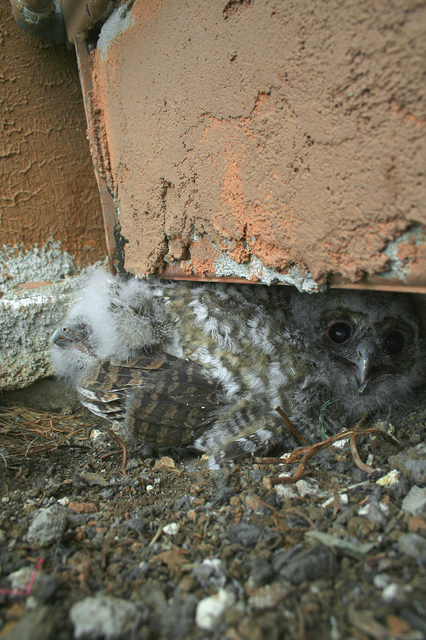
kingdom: Animalia
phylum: Chordata
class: Aves
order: Strigiformes
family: Strigidae
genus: Strix
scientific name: Strix aluco
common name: Tawny owl
